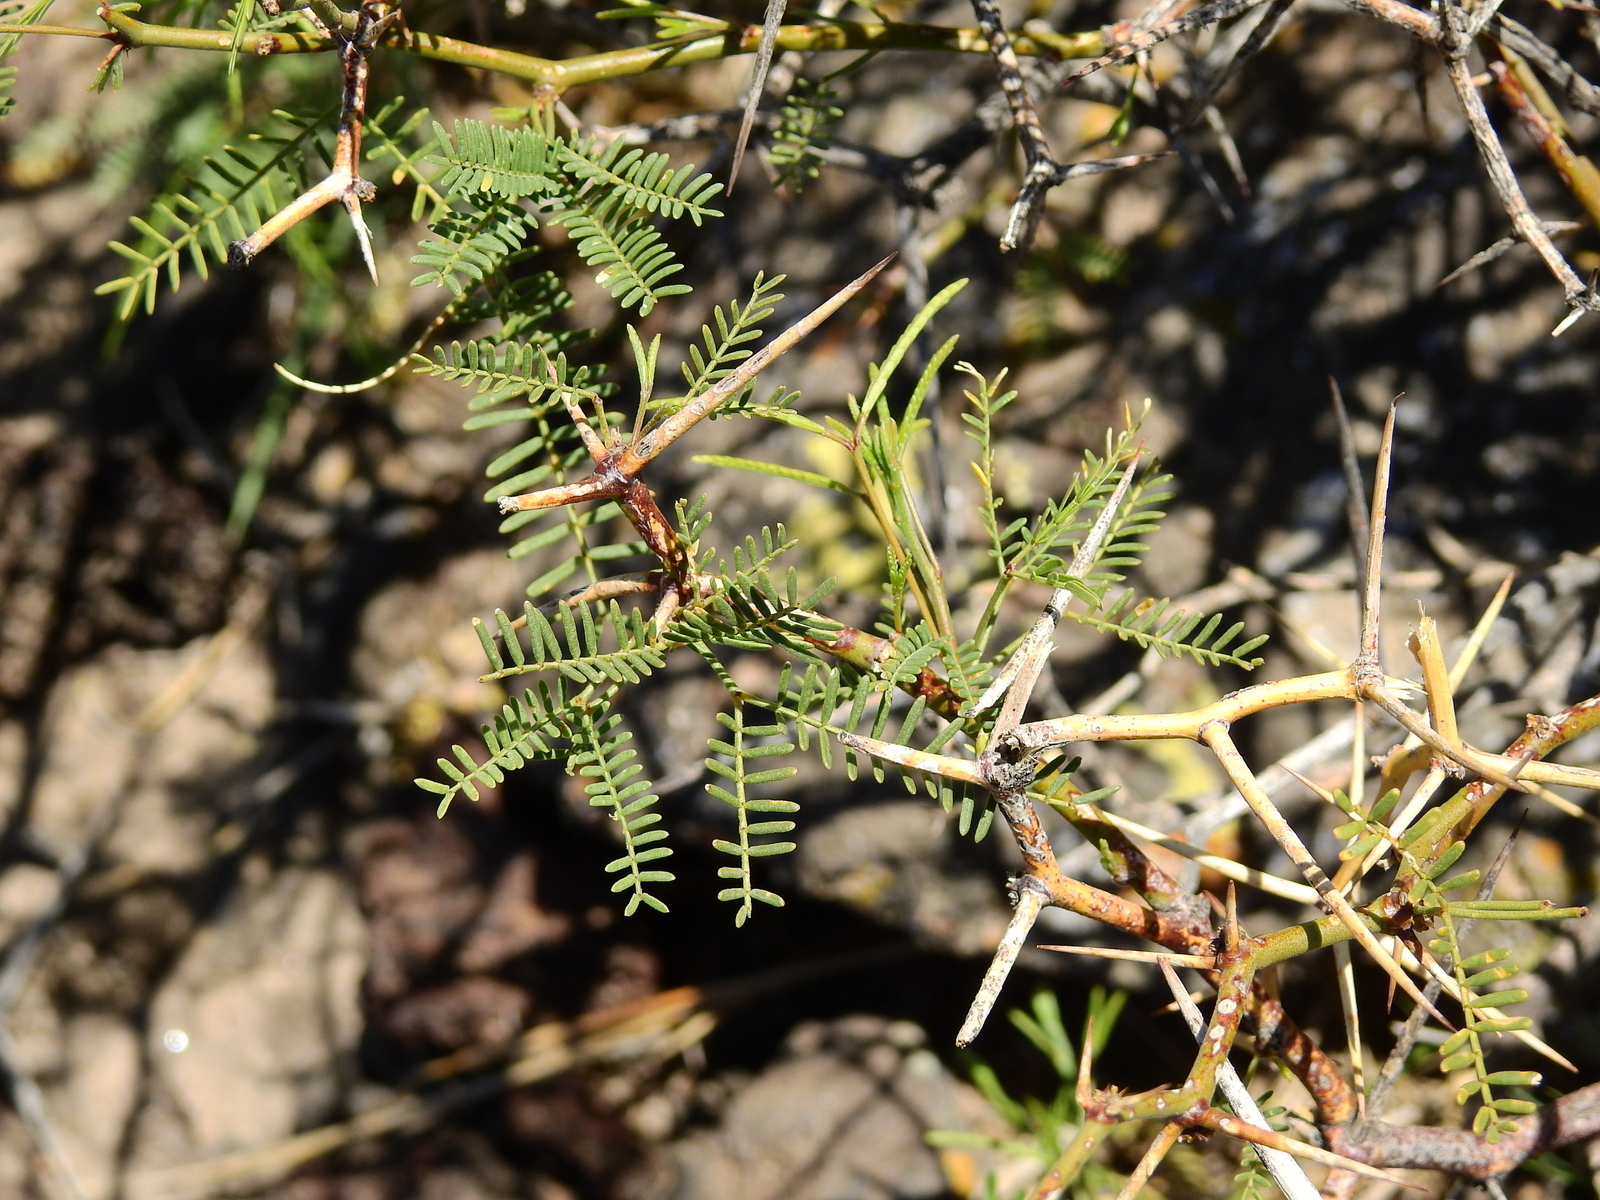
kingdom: Plantae
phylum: Tracheophyta
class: Magnoliopsida
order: Fabales
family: Fabaceae
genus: Prosopis
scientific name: Prosopis flexuosa
